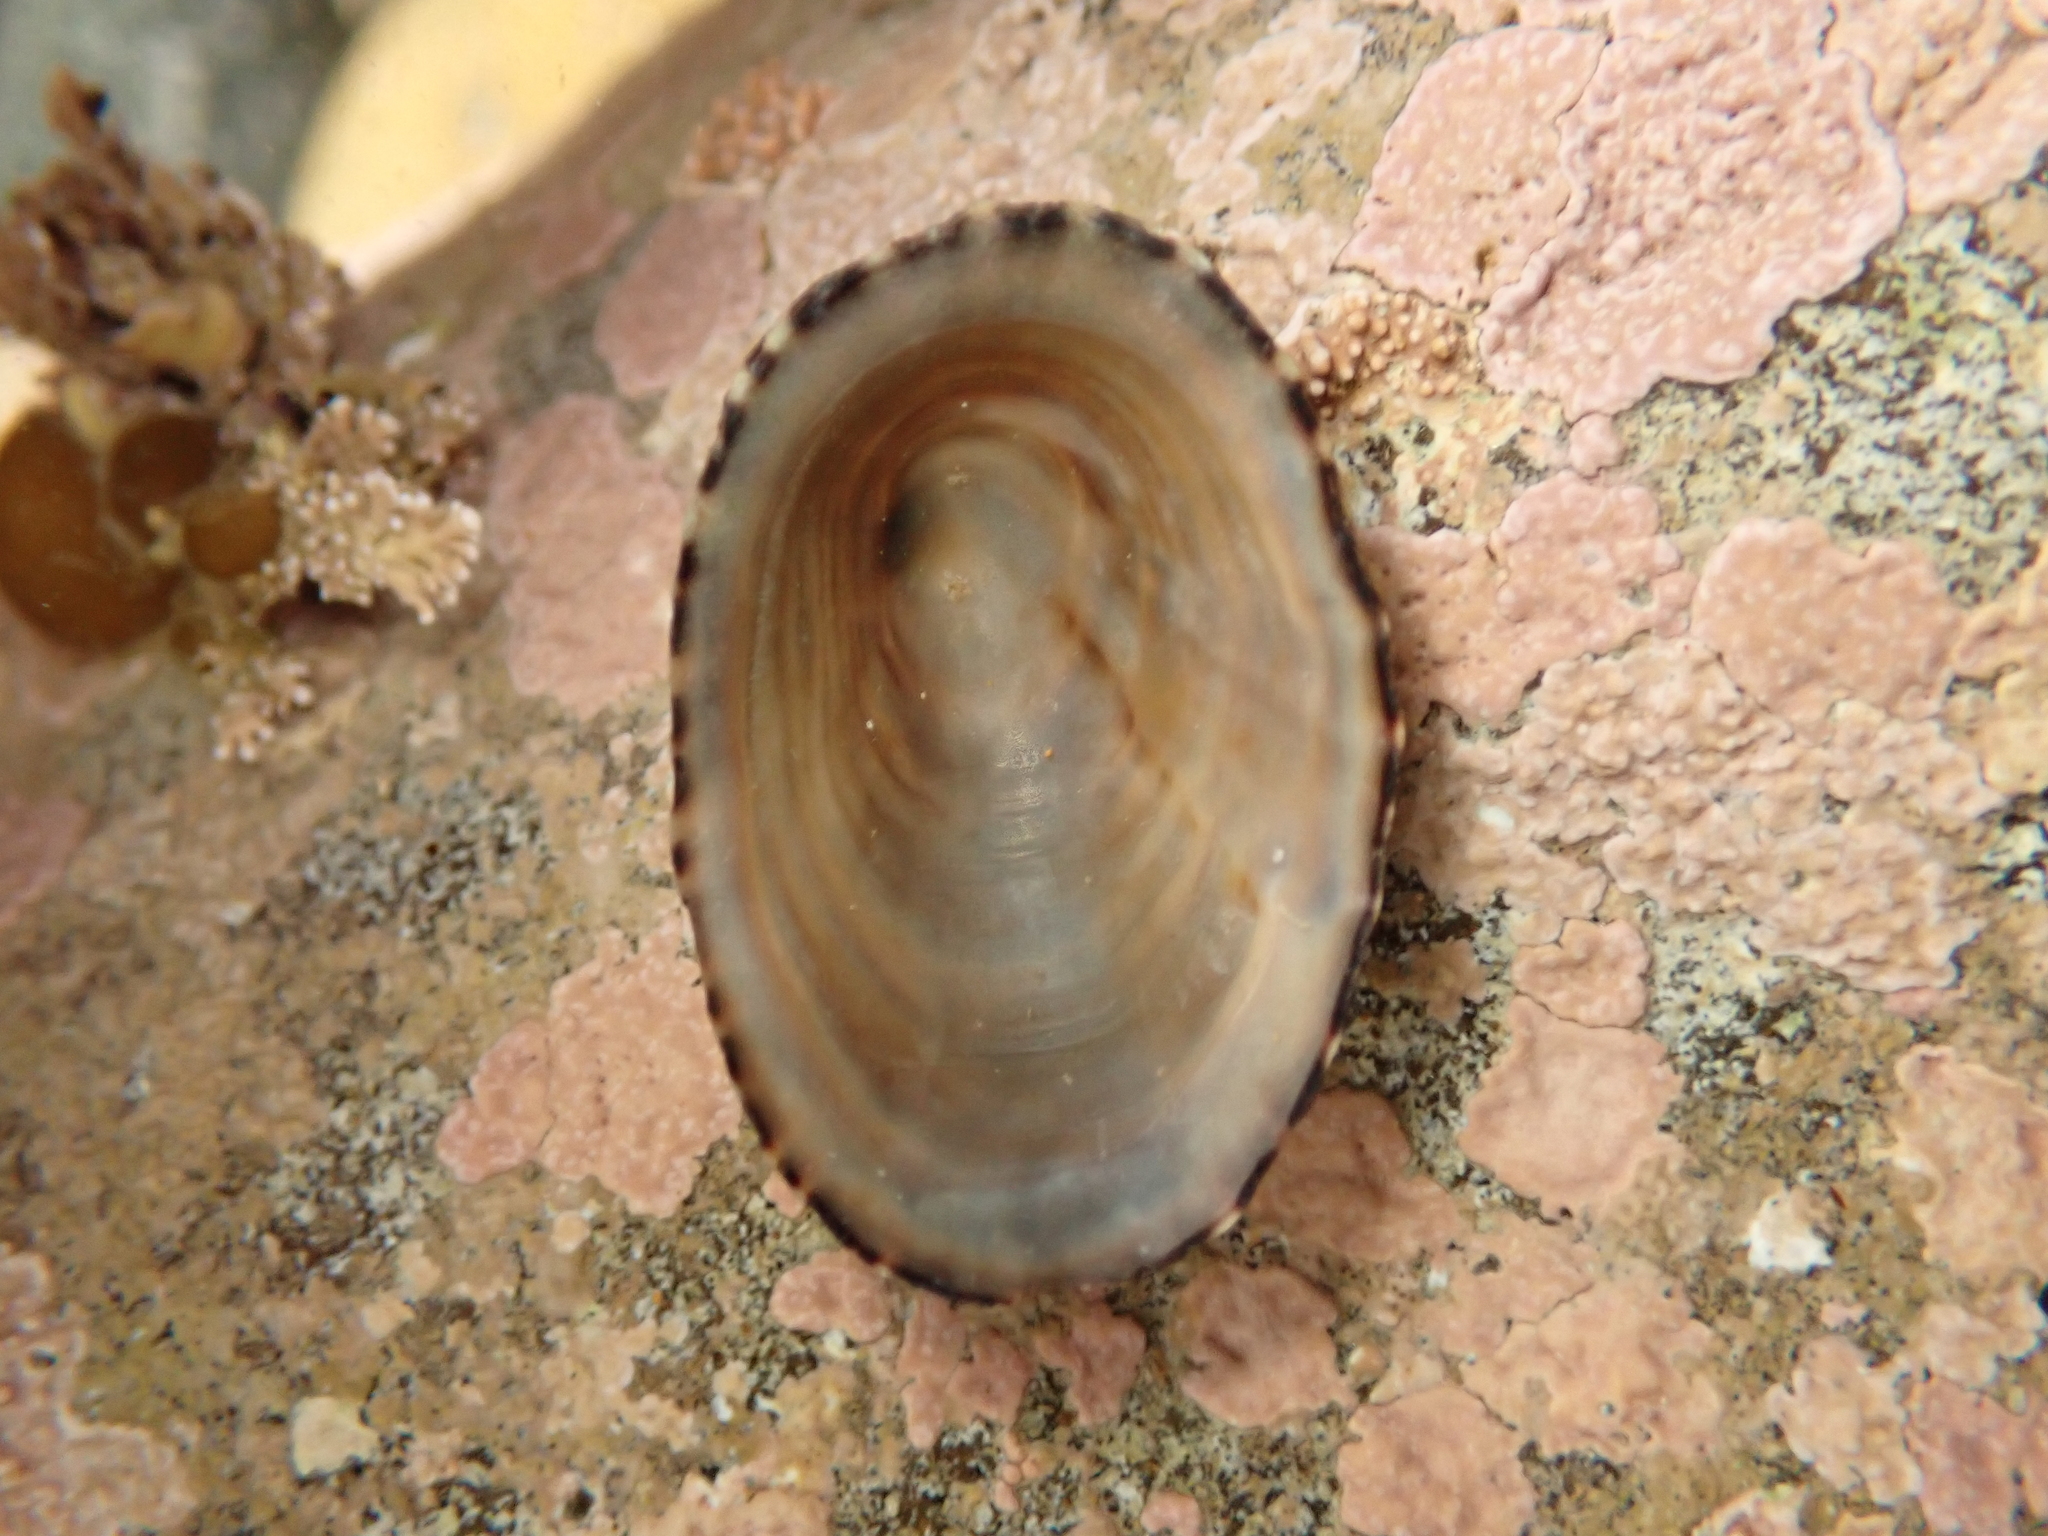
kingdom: Animalia
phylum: Mollusca
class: Gastropoda
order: Siphonariida
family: Siphonariidae
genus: Benhamina
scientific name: Benhamina obliquata
